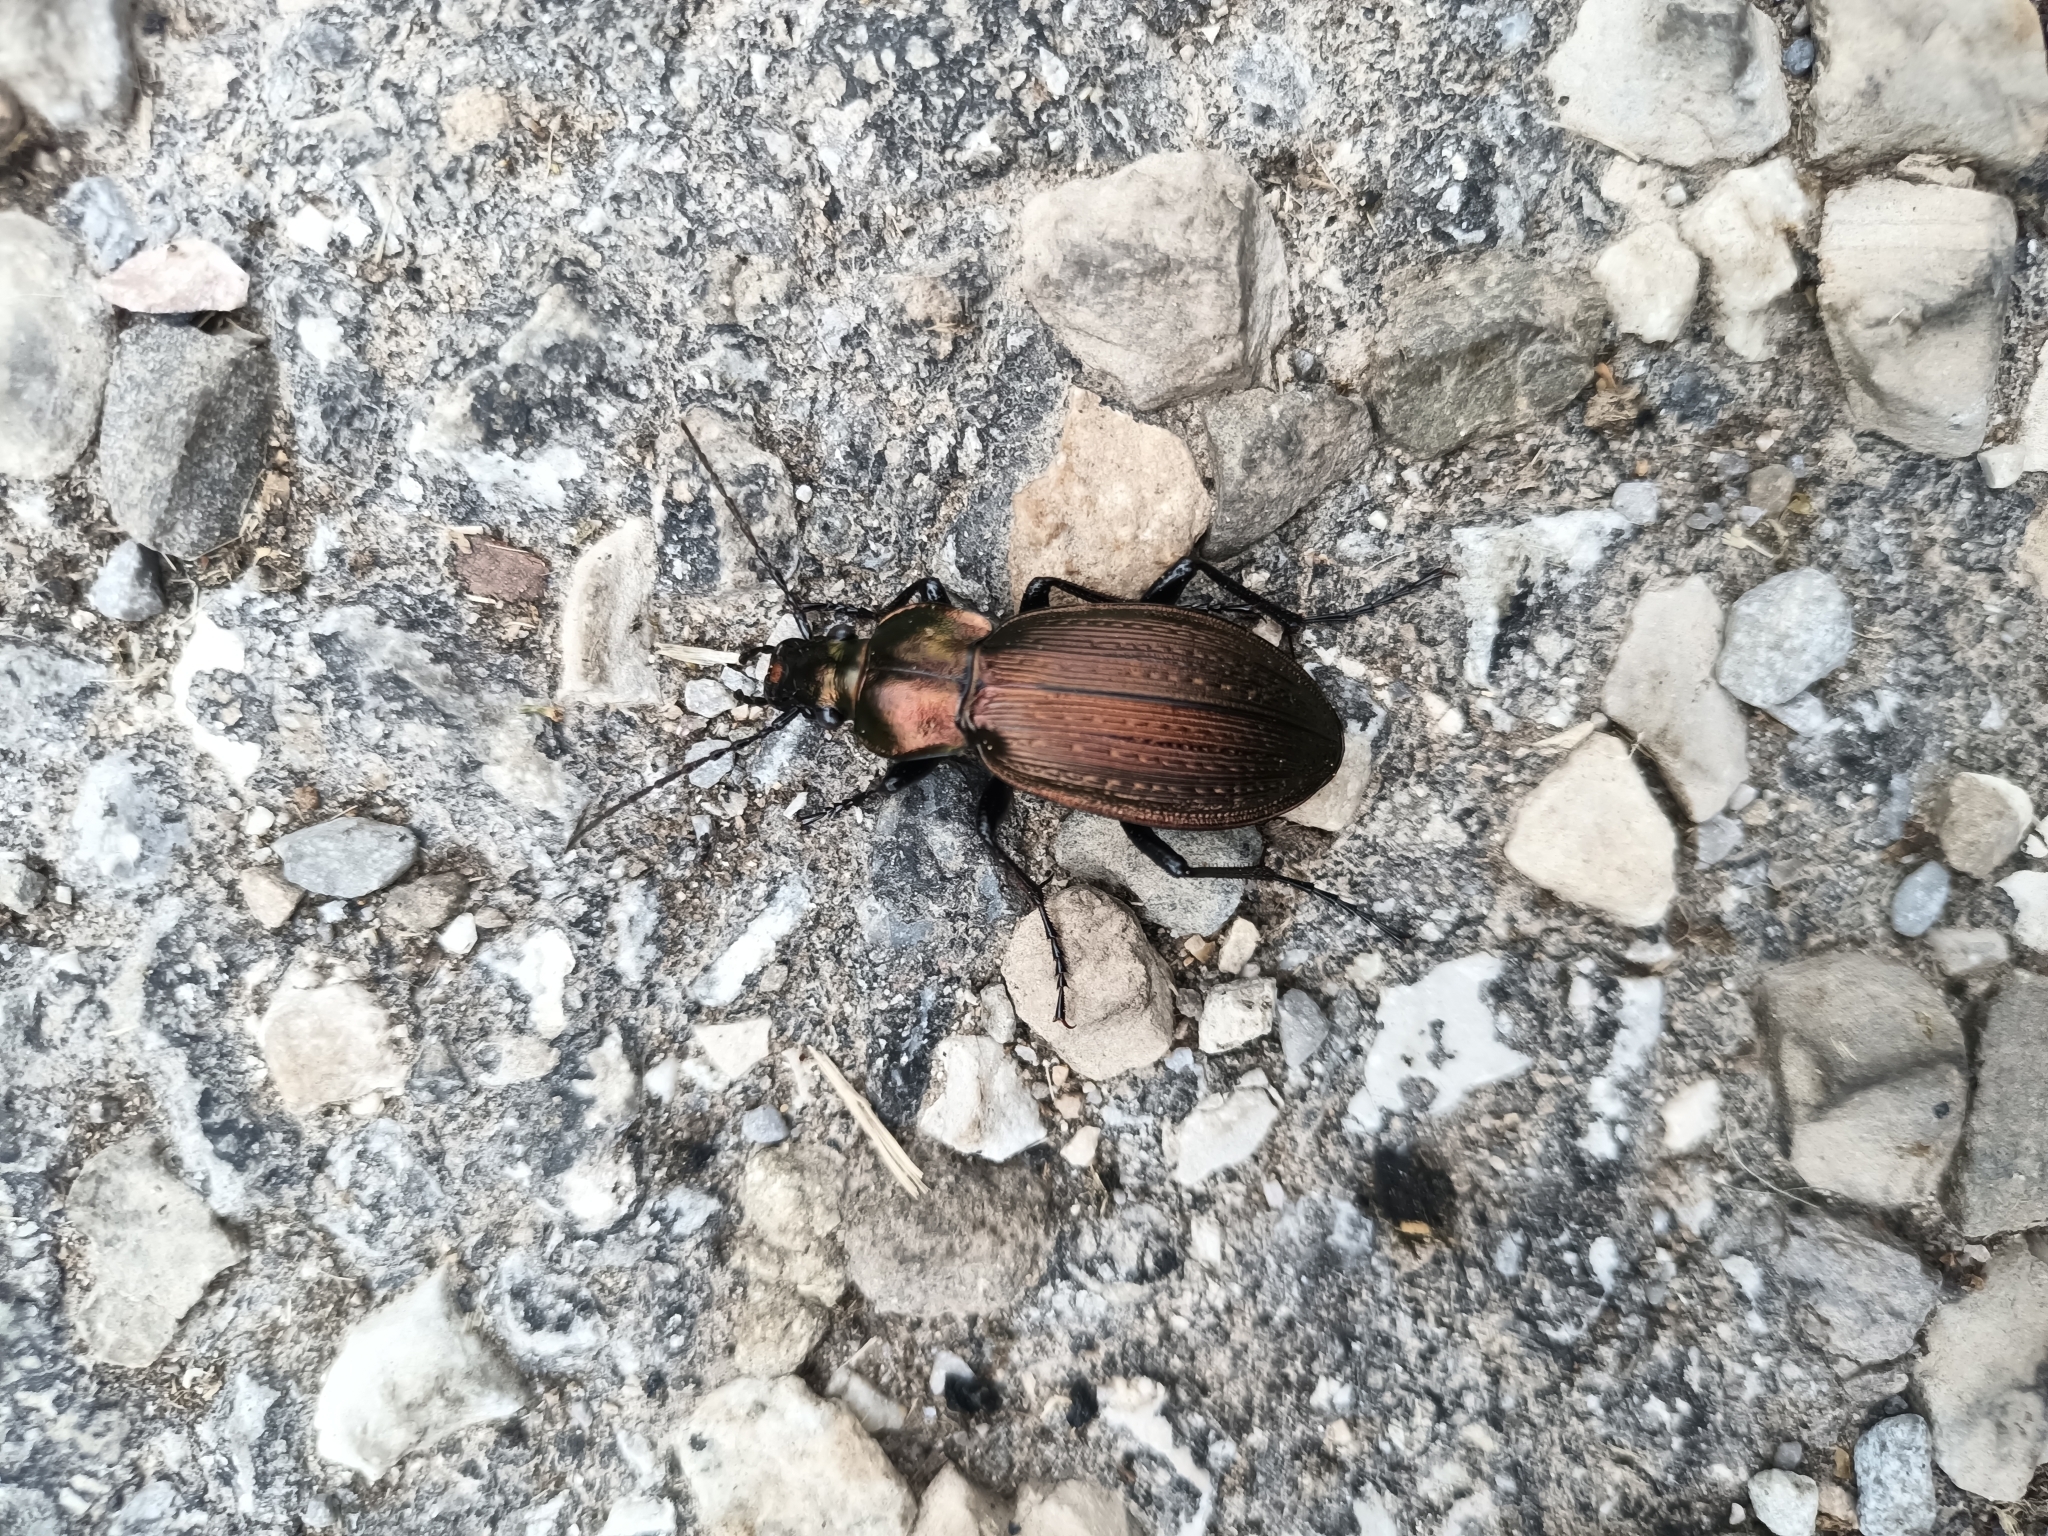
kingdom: Animalia
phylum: Arthropoda
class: Insecta
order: Coleoptera
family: Carabidae
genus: Carabus
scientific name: Carabus monilis
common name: Necklace ground beetle
